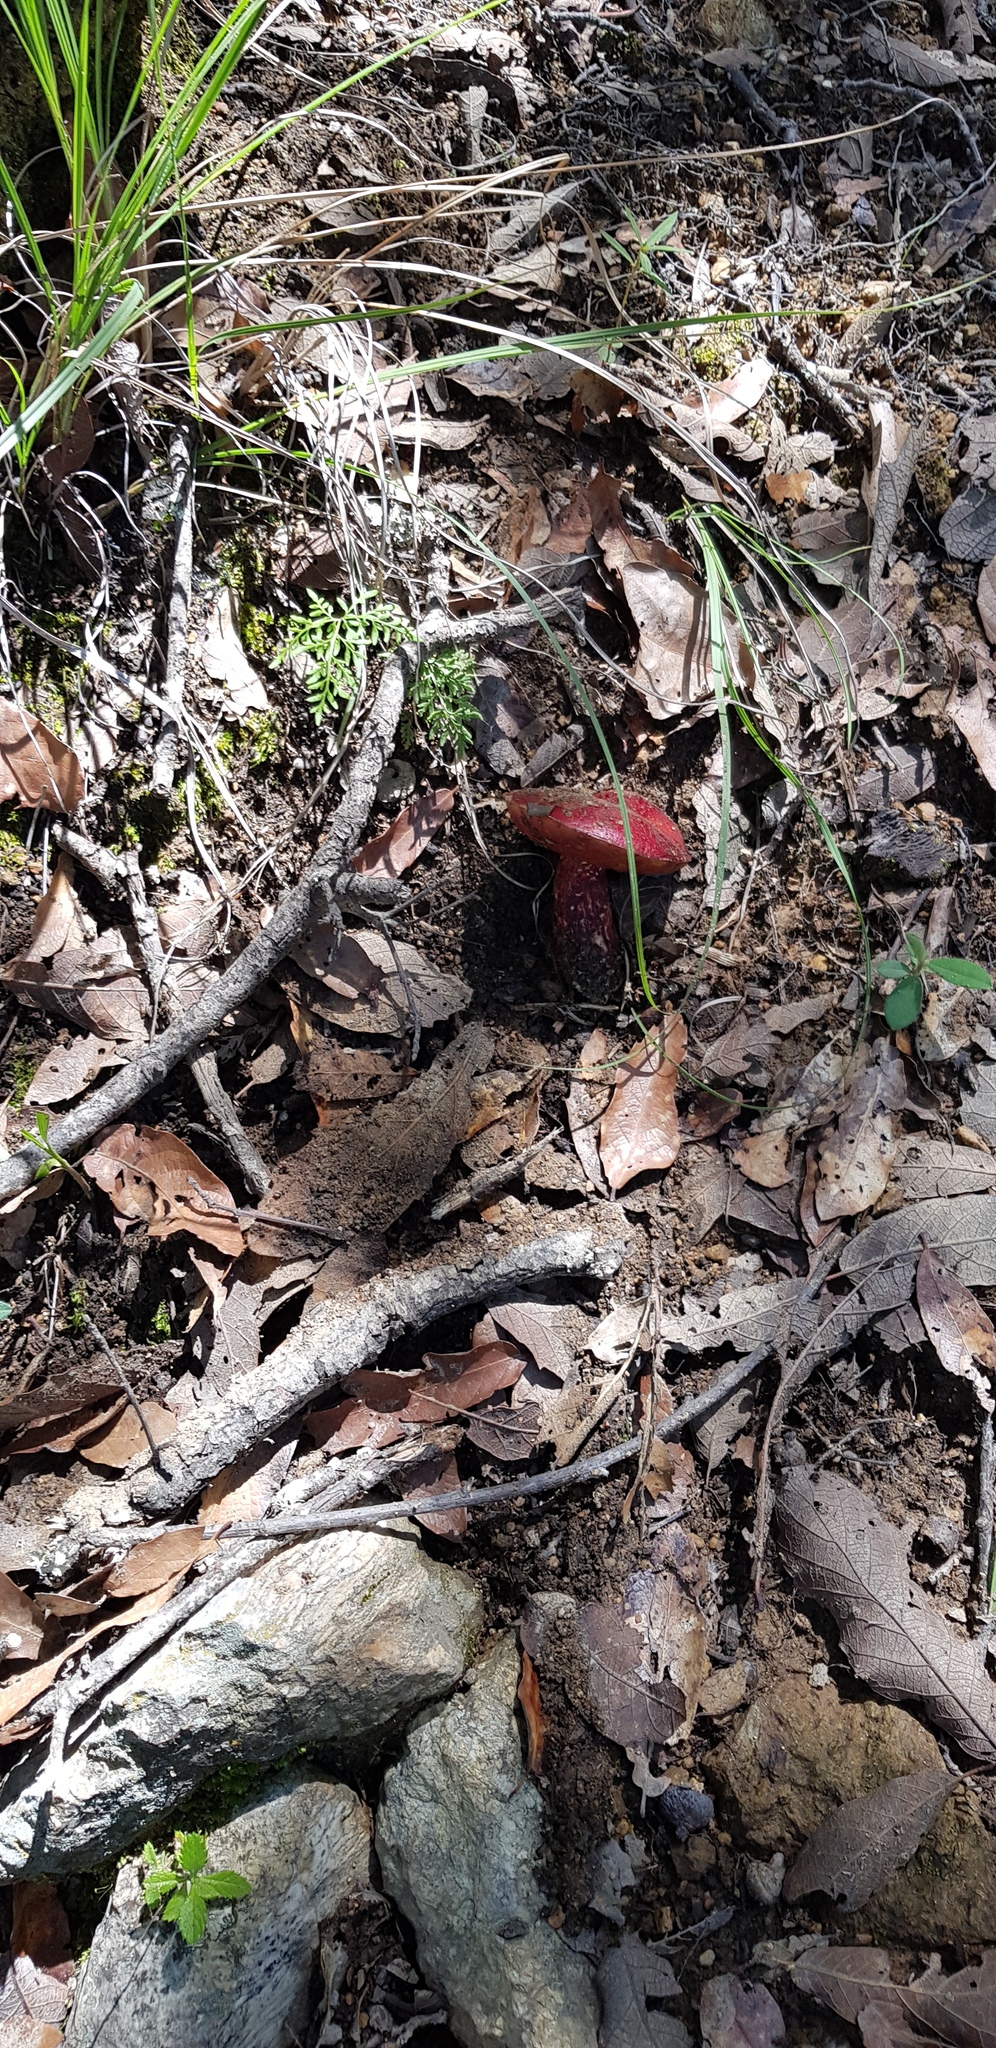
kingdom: Fungi
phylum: Basidiomycota
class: Agaricomycetes
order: Boletales
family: Boletaceae
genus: Butyriboletus
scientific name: Butyriboletus frostii
